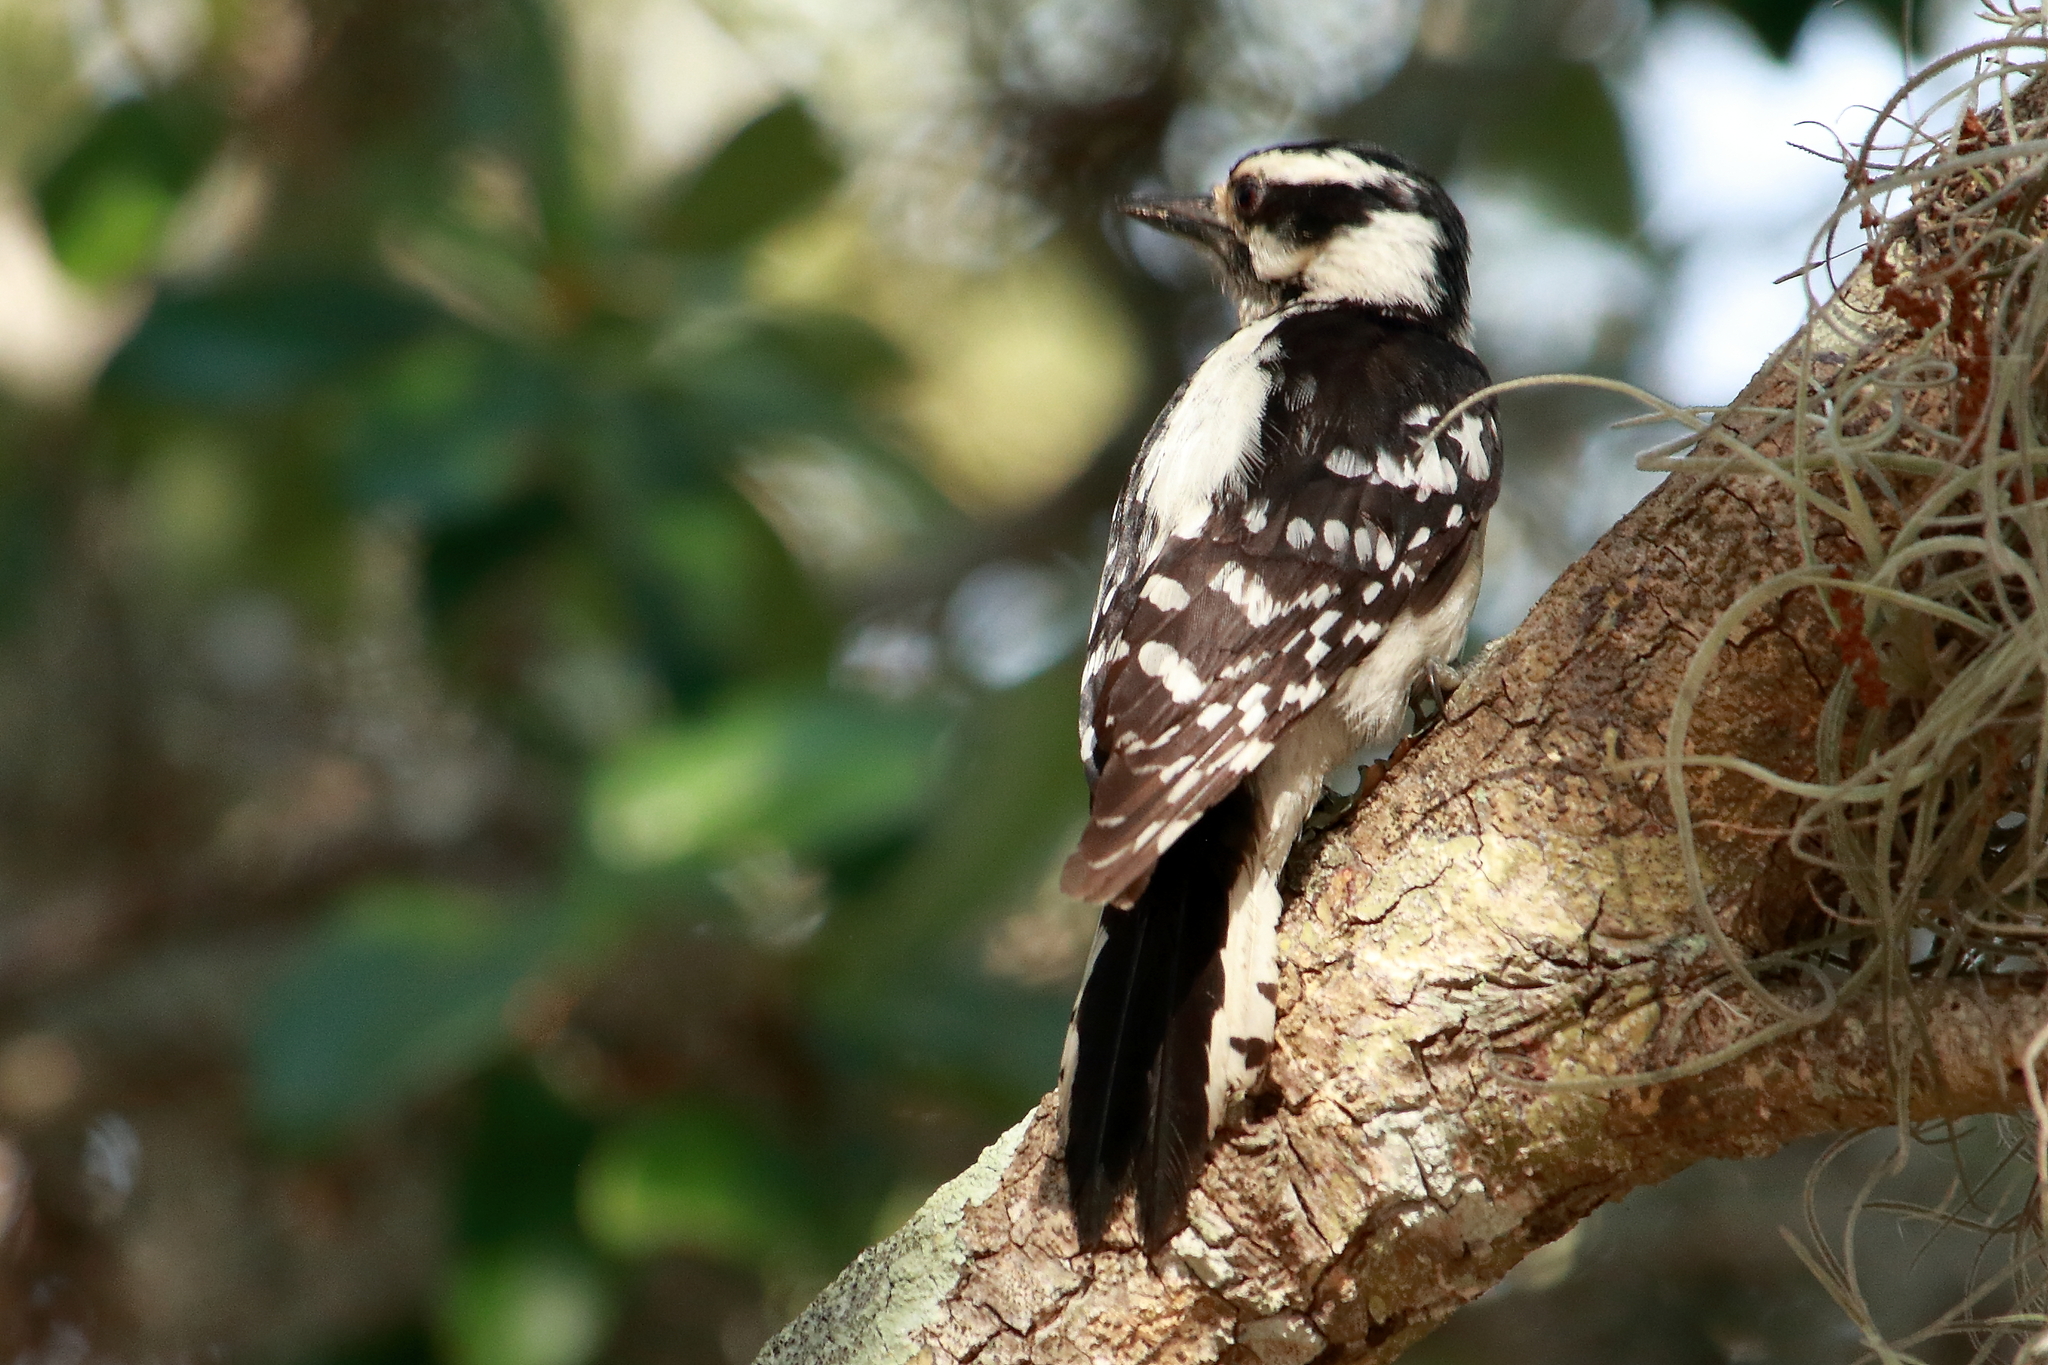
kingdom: Animalia
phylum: Chordata
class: Aves
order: Piciformes
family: Picidae
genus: Dryobates
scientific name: Dryobates pubescens
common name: Downy woodpecker
